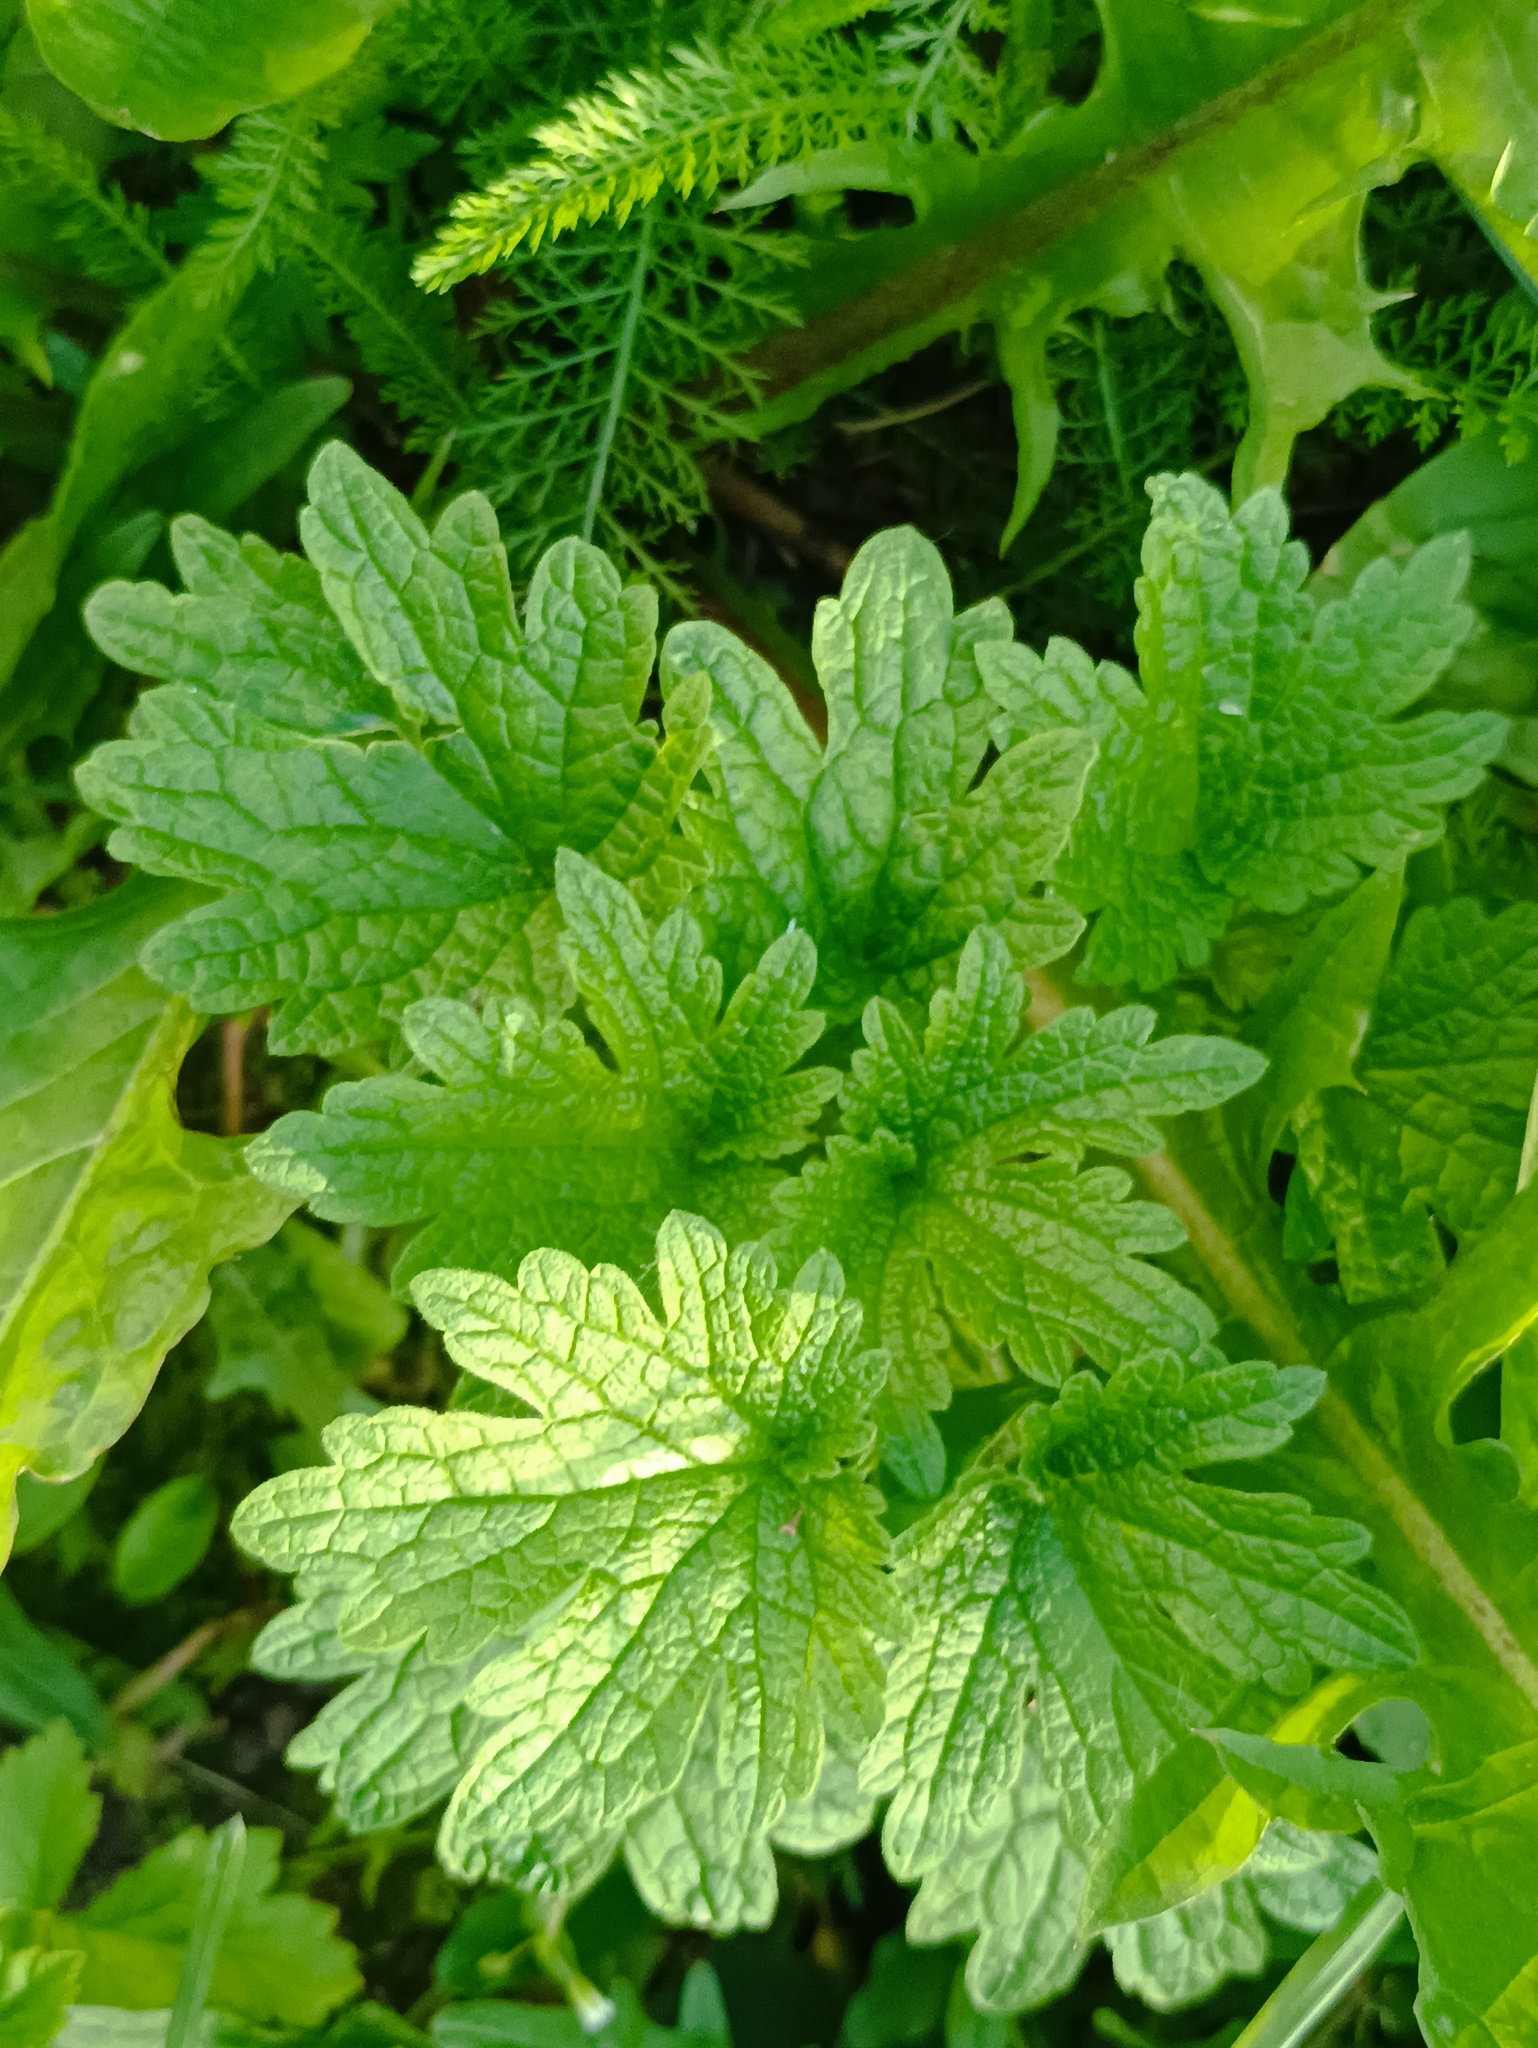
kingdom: Plantae
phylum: Tracheophyta
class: Magnoliopsida
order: Lamiales
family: Lamiaceae
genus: Leonurus
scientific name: Leonurus quinquelobatus
